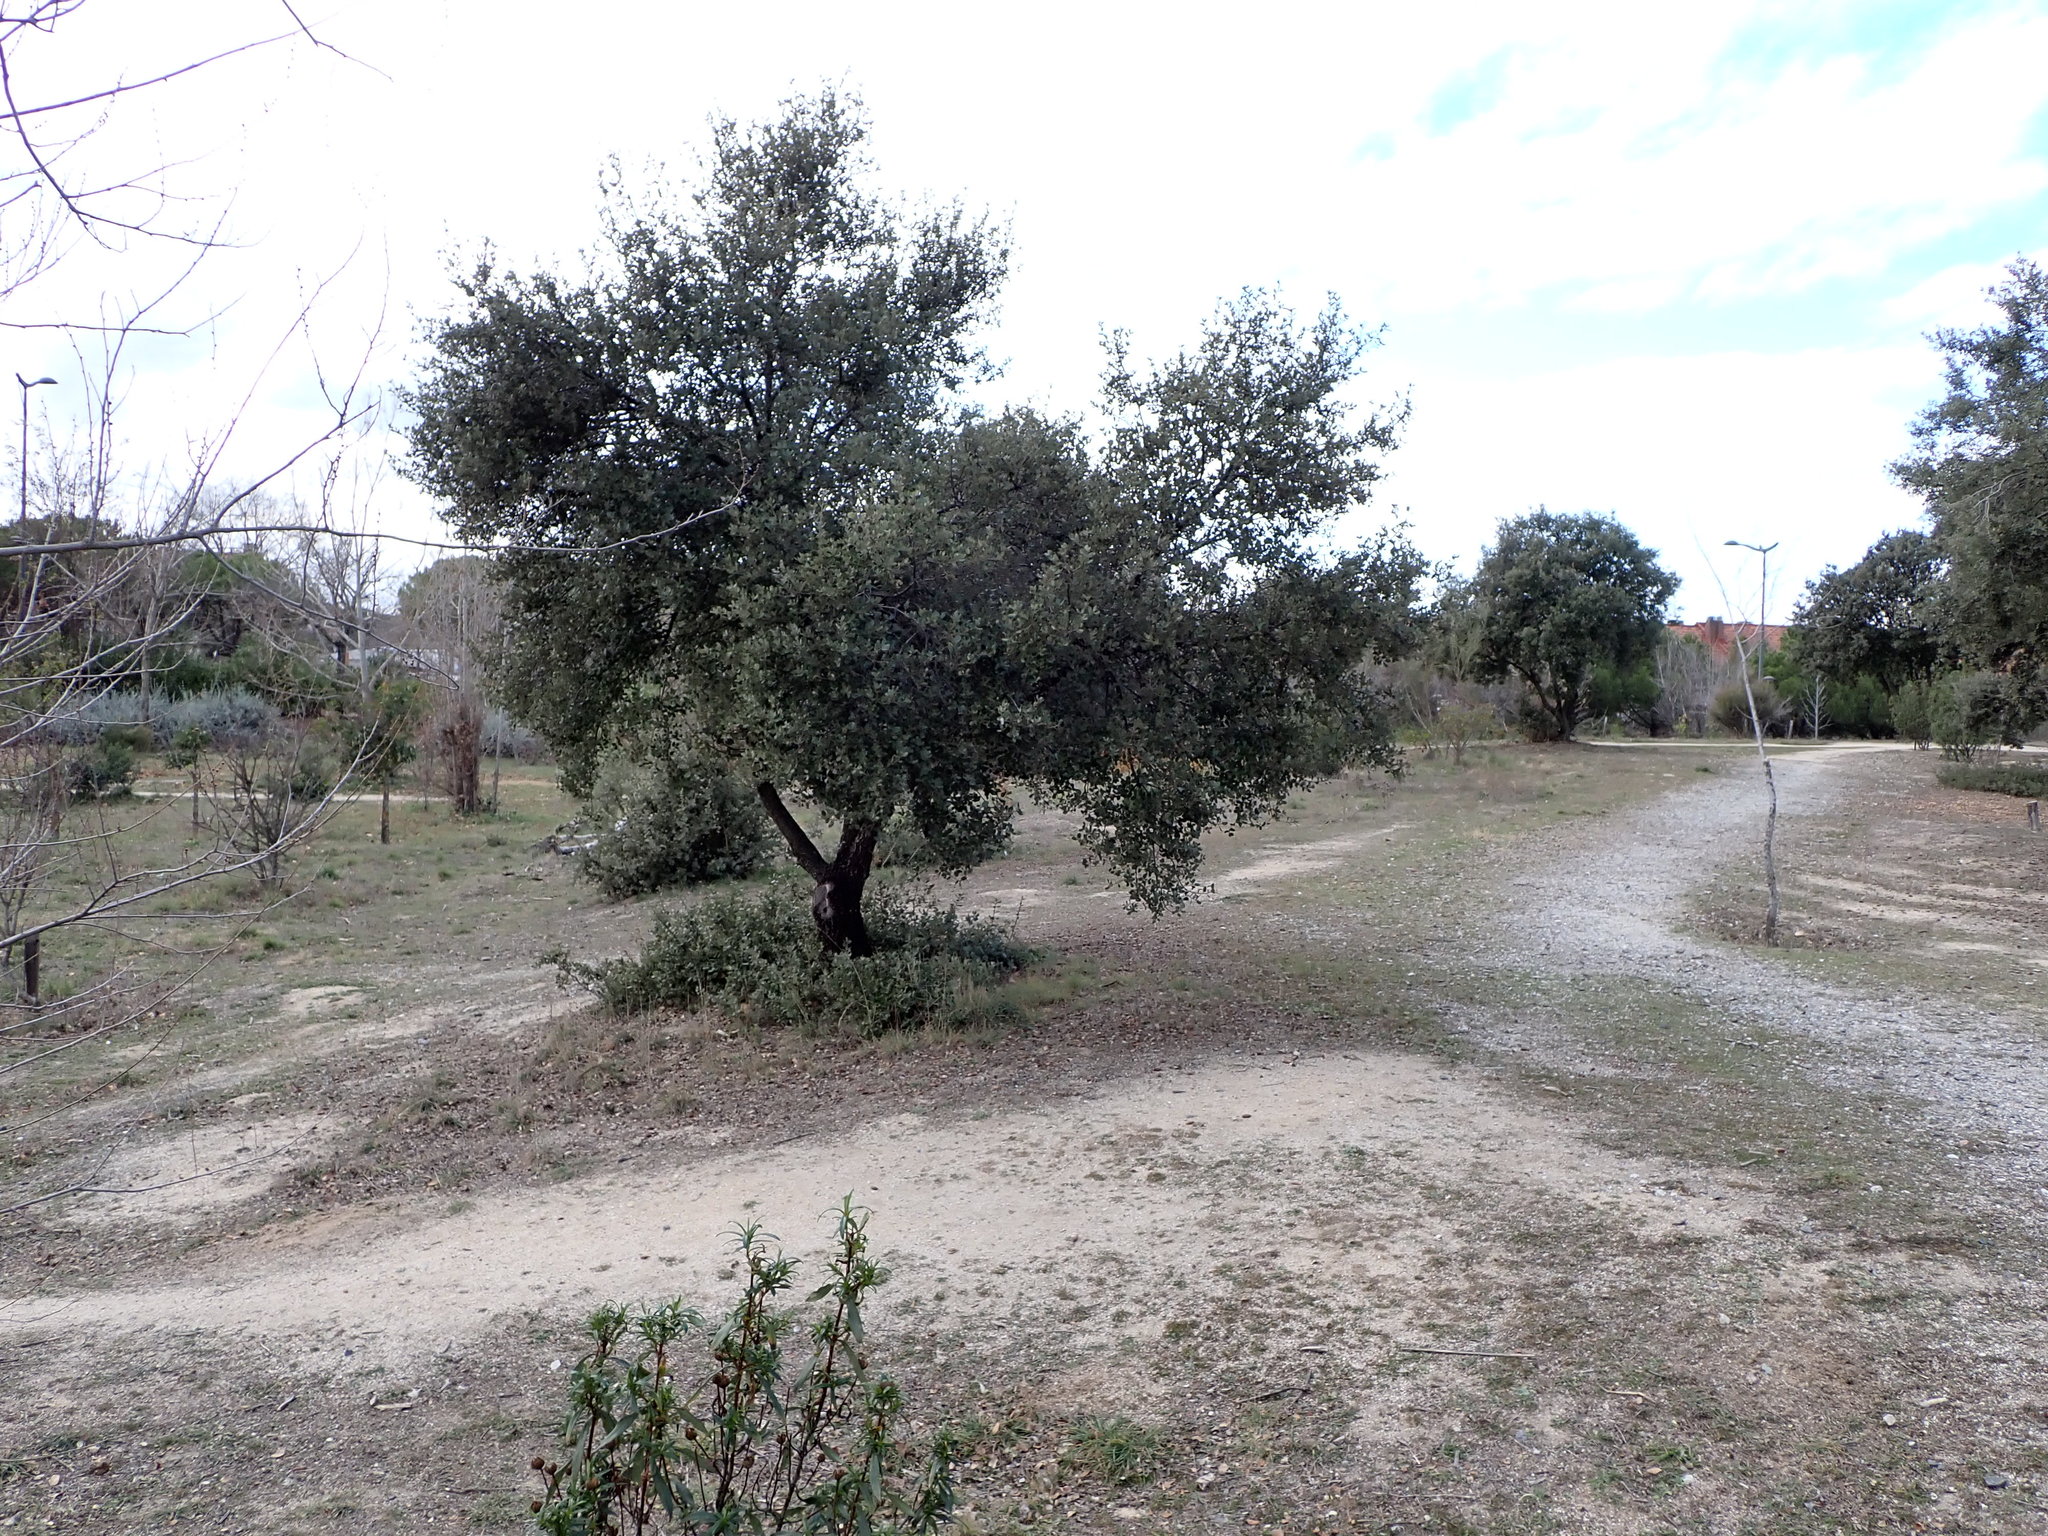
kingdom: Plantae
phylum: Tracheophyta
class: Magnoliopsida
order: Fagales
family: Fagaceae
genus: Quercus
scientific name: Quercus rotundifolia
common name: Holm oak
